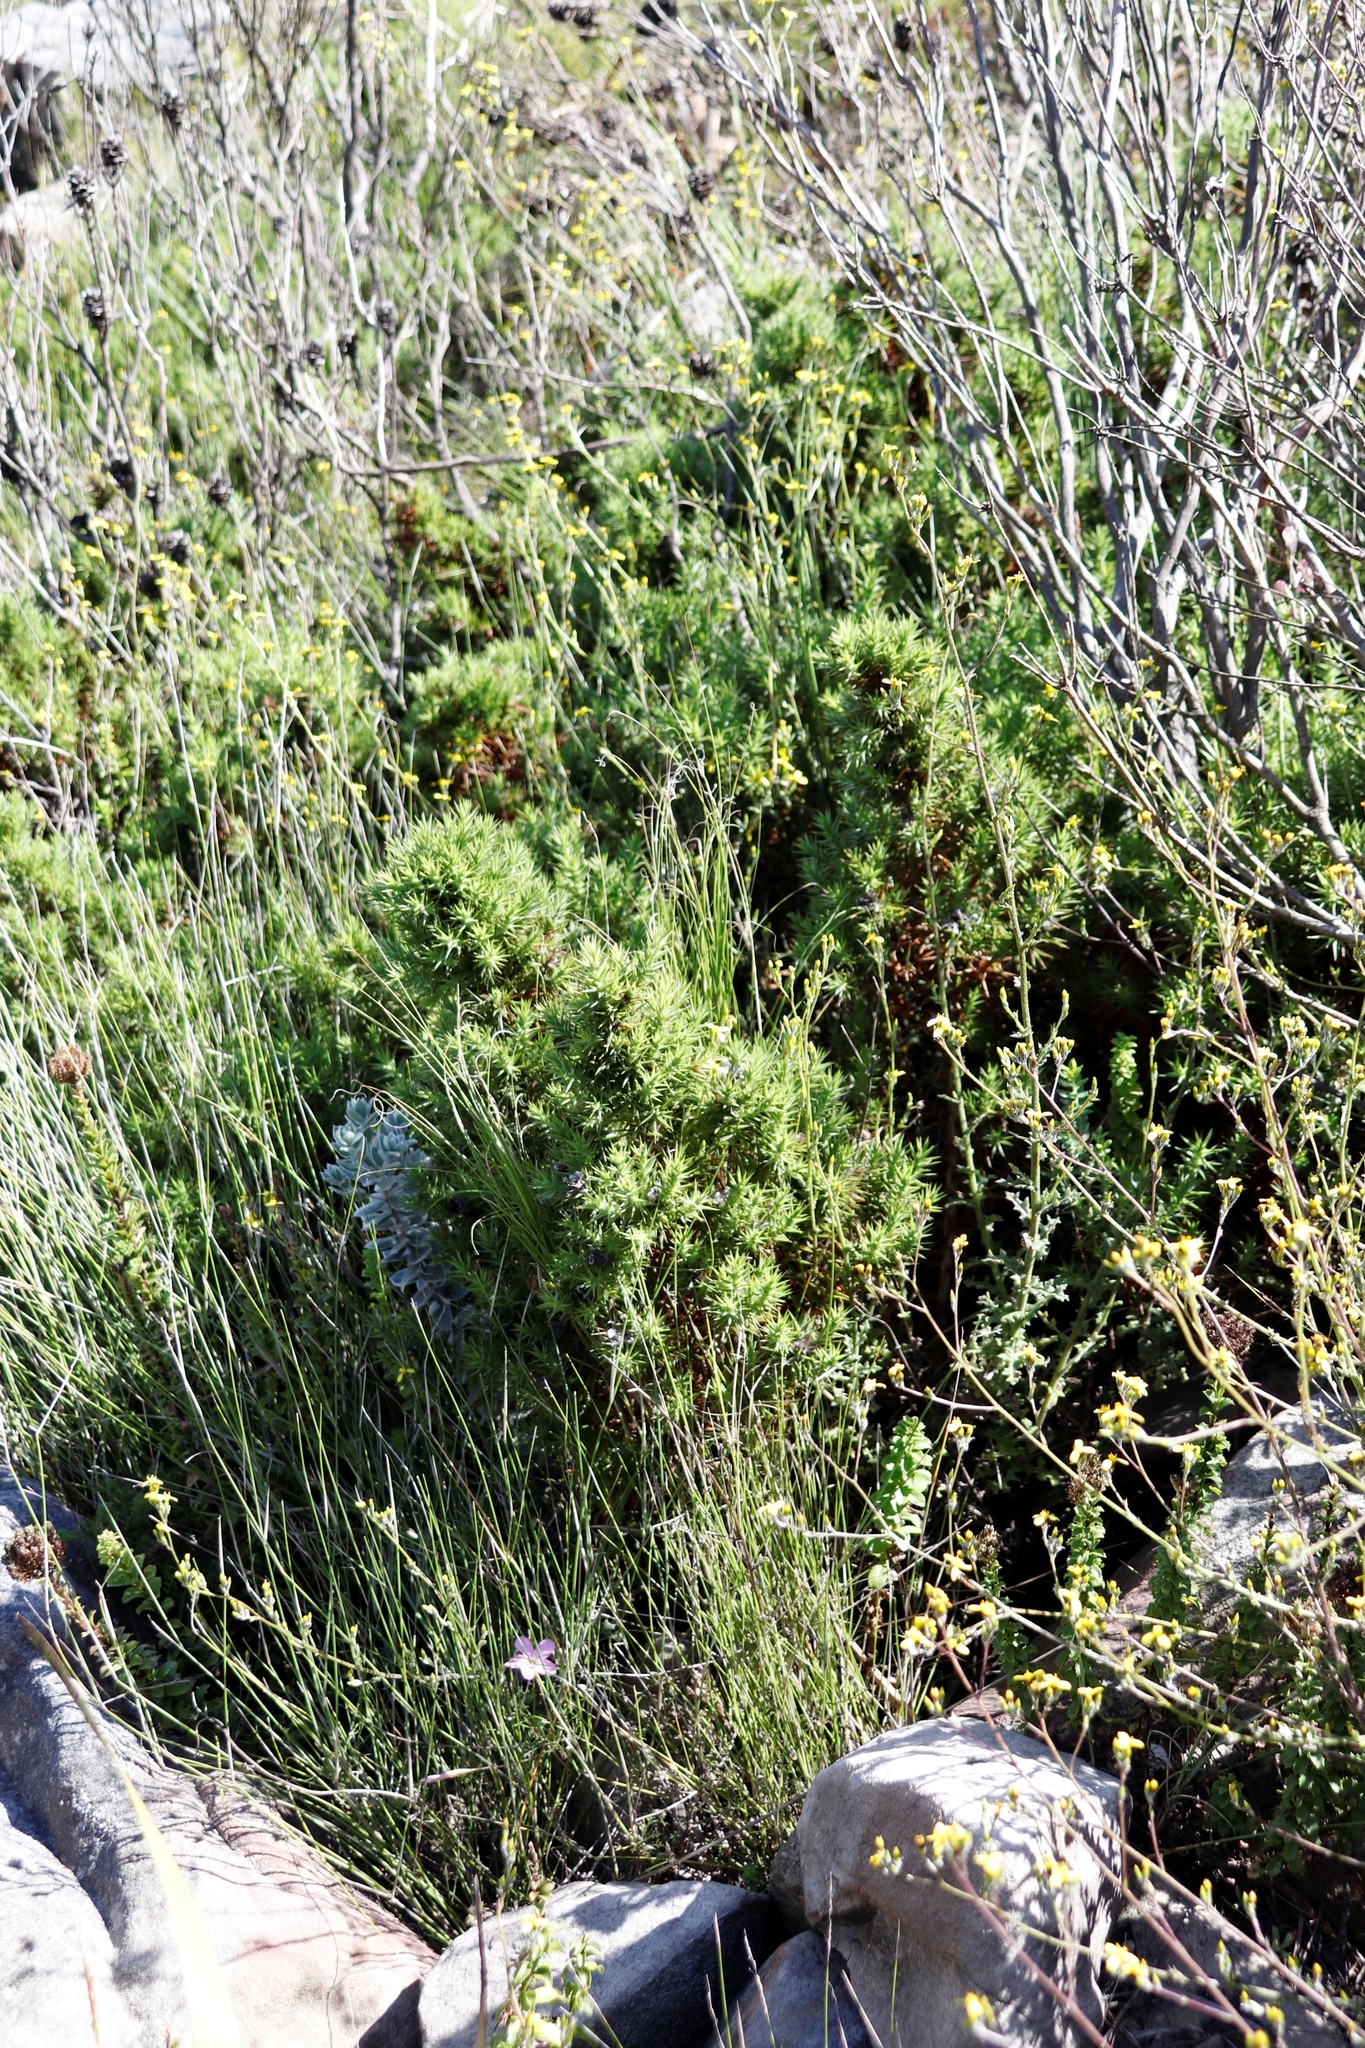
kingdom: Plantae
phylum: Tracheophyta
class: Magnoliopsida
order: Fabales
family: Fabaceae
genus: Aspalathus
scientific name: Aspalathus barbata
